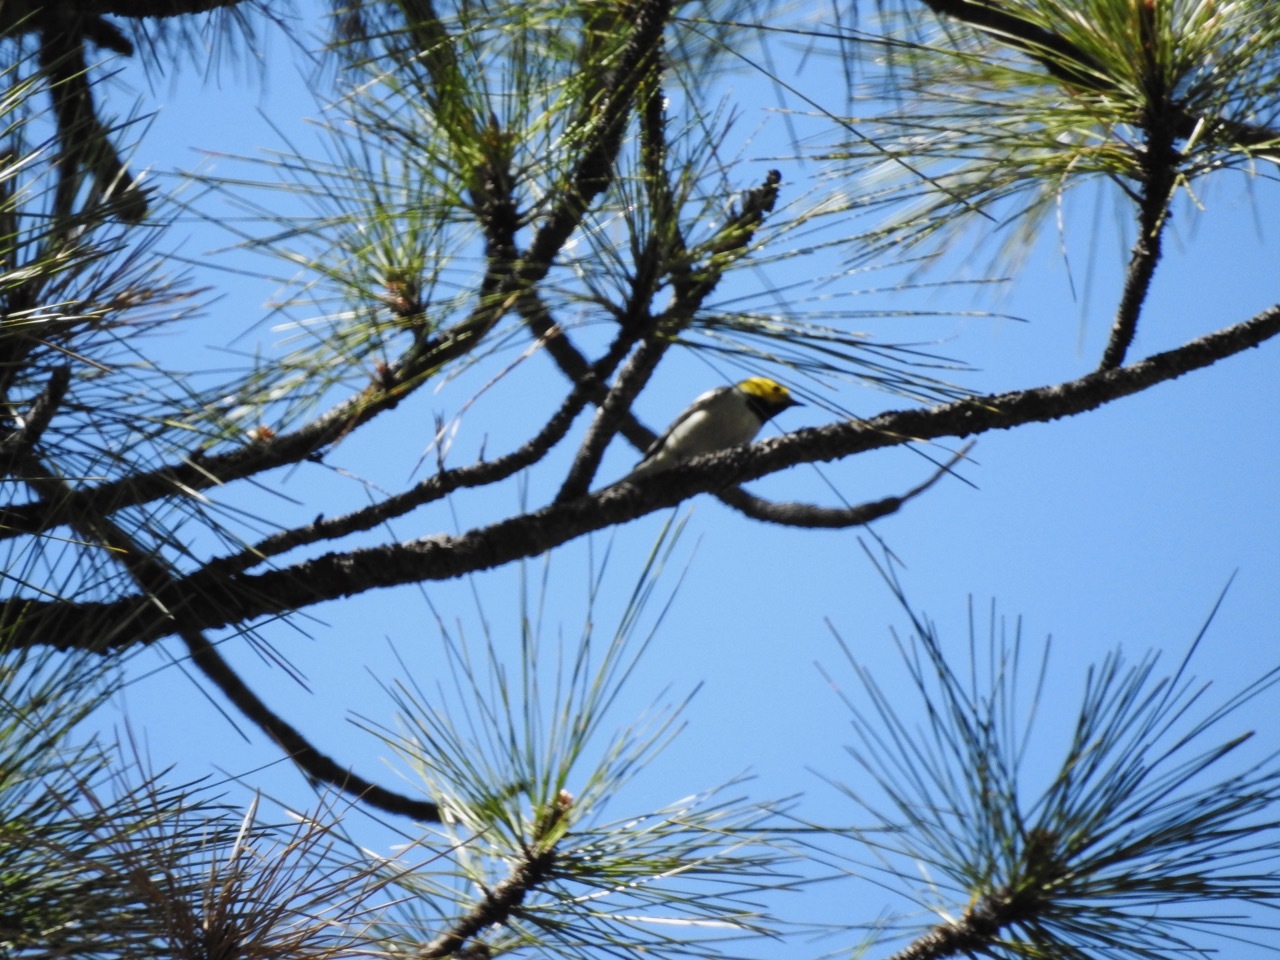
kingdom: Animalia
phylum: Chordata
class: Aves
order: Passeriformes
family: Parulidae
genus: Setophaga
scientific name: Setophaga occidentalis
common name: Hermit warbler
